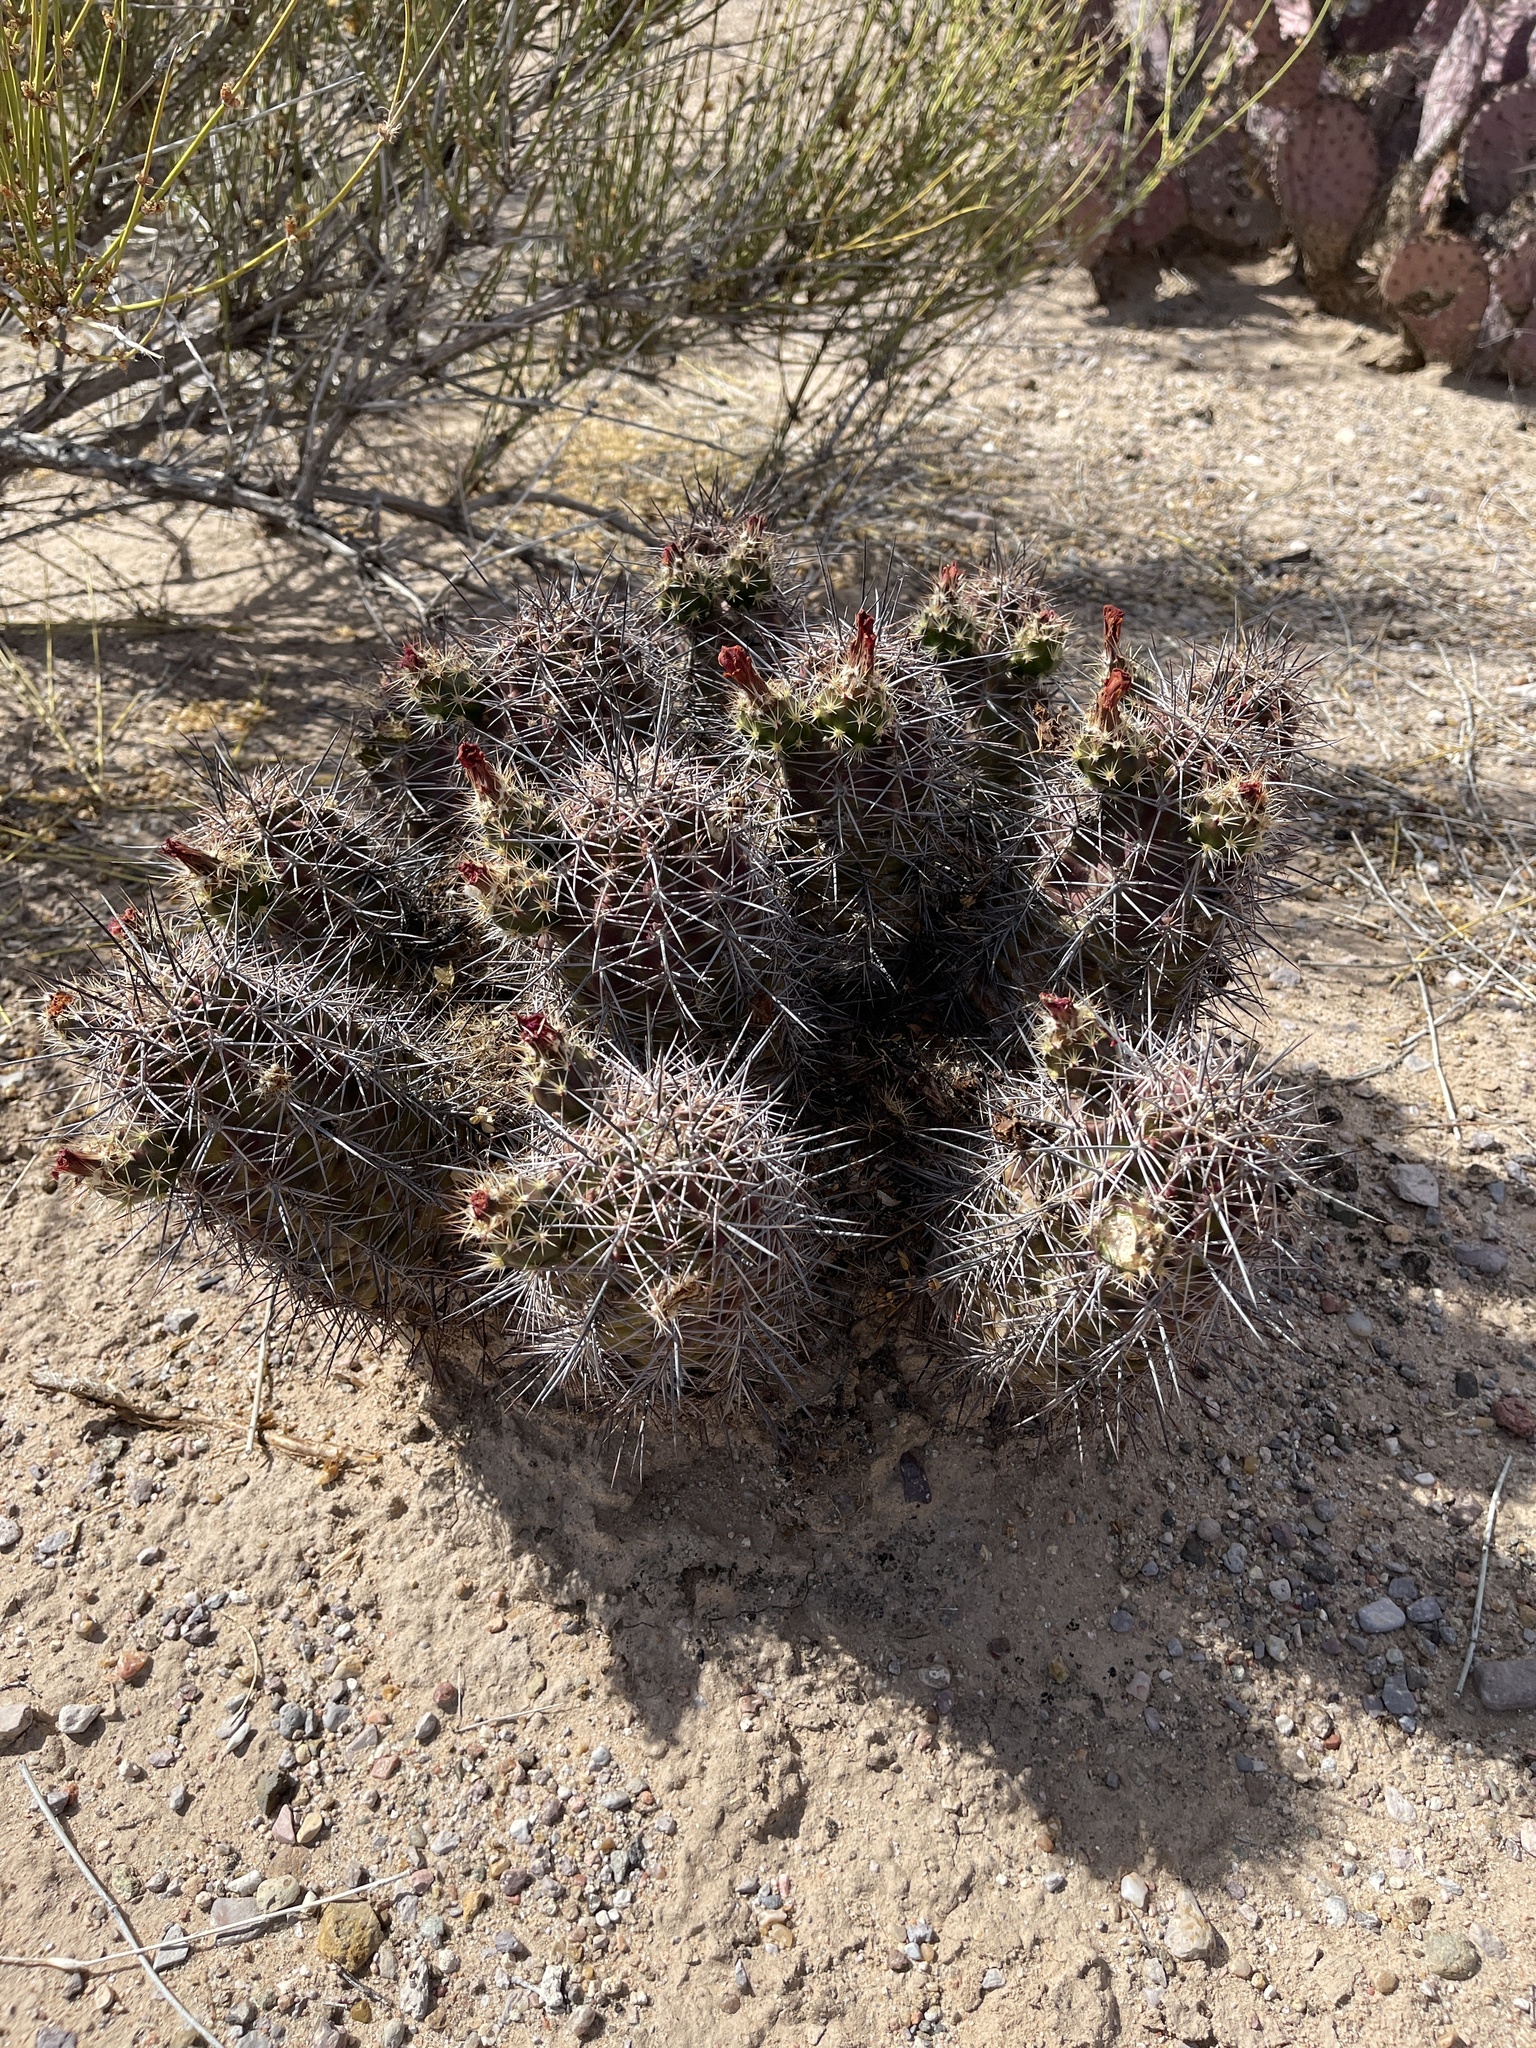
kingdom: Plantae
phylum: Tracheophyta
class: Magnoliopsida
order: Caryophyllales
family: Cactaceae
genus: Echinocereus
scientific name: Echinocereus coccineus
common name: Scarlet hedgehog cactus
